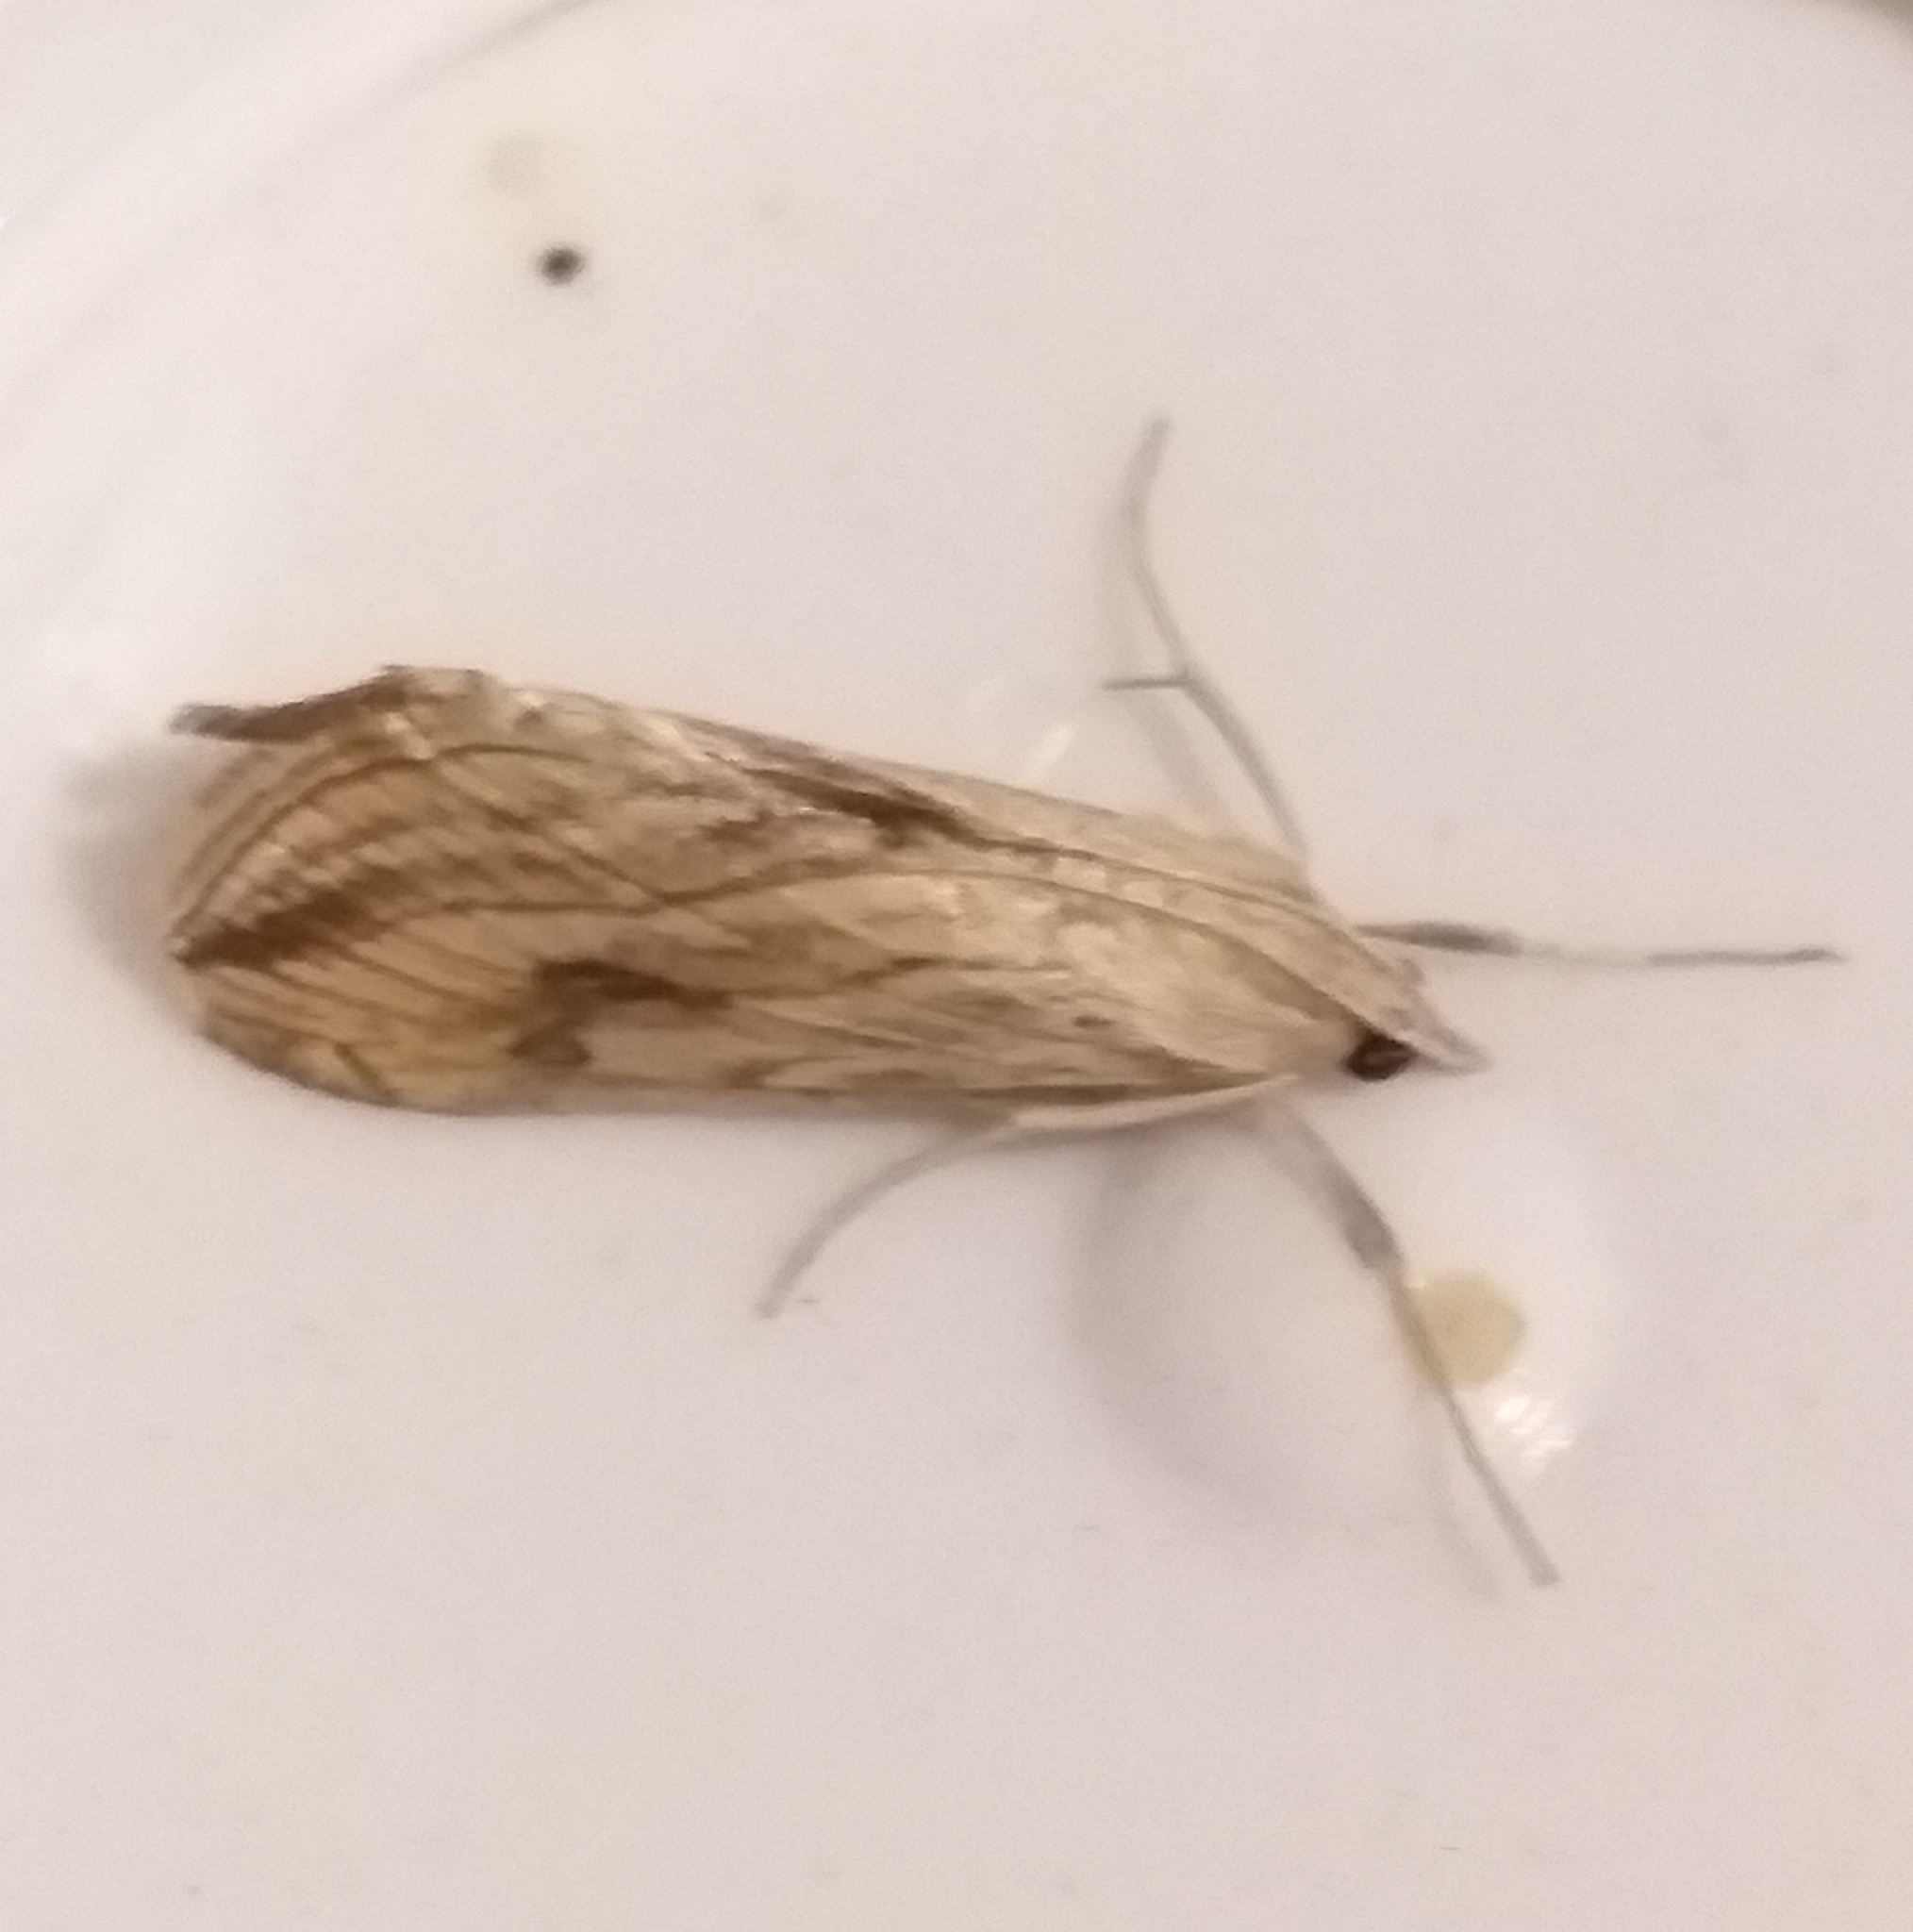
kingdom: Animalia
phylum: Arthropoda
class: Insecta
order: Lepidoptera
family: Crambidae
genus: Evergestis
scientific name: Evergestis forficalis
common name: Garden pebble
